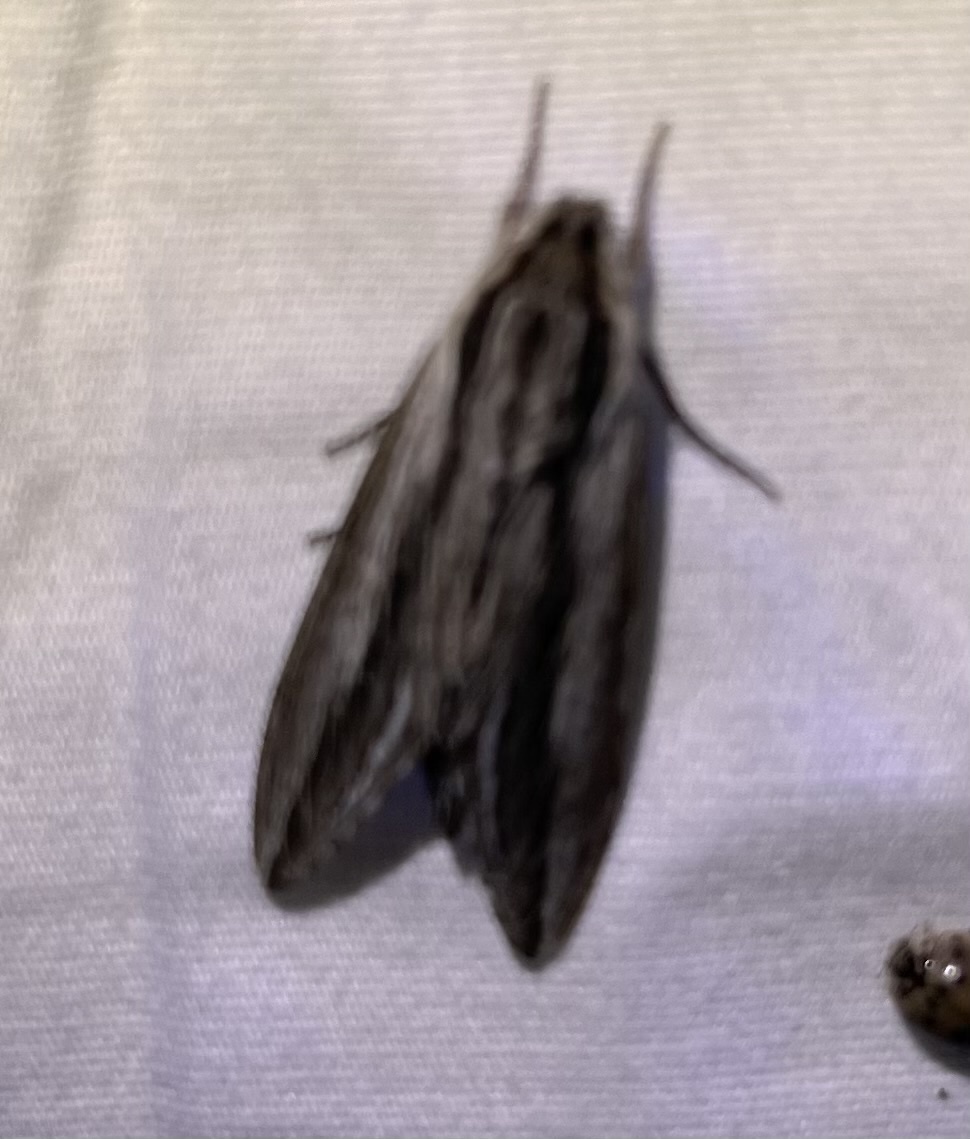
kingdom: Animalia
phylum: Arthropoda
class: Insecta
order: Lepidoptera
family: Sphingidae
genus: Sphinx
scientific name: Sphinx vanbuskirki
